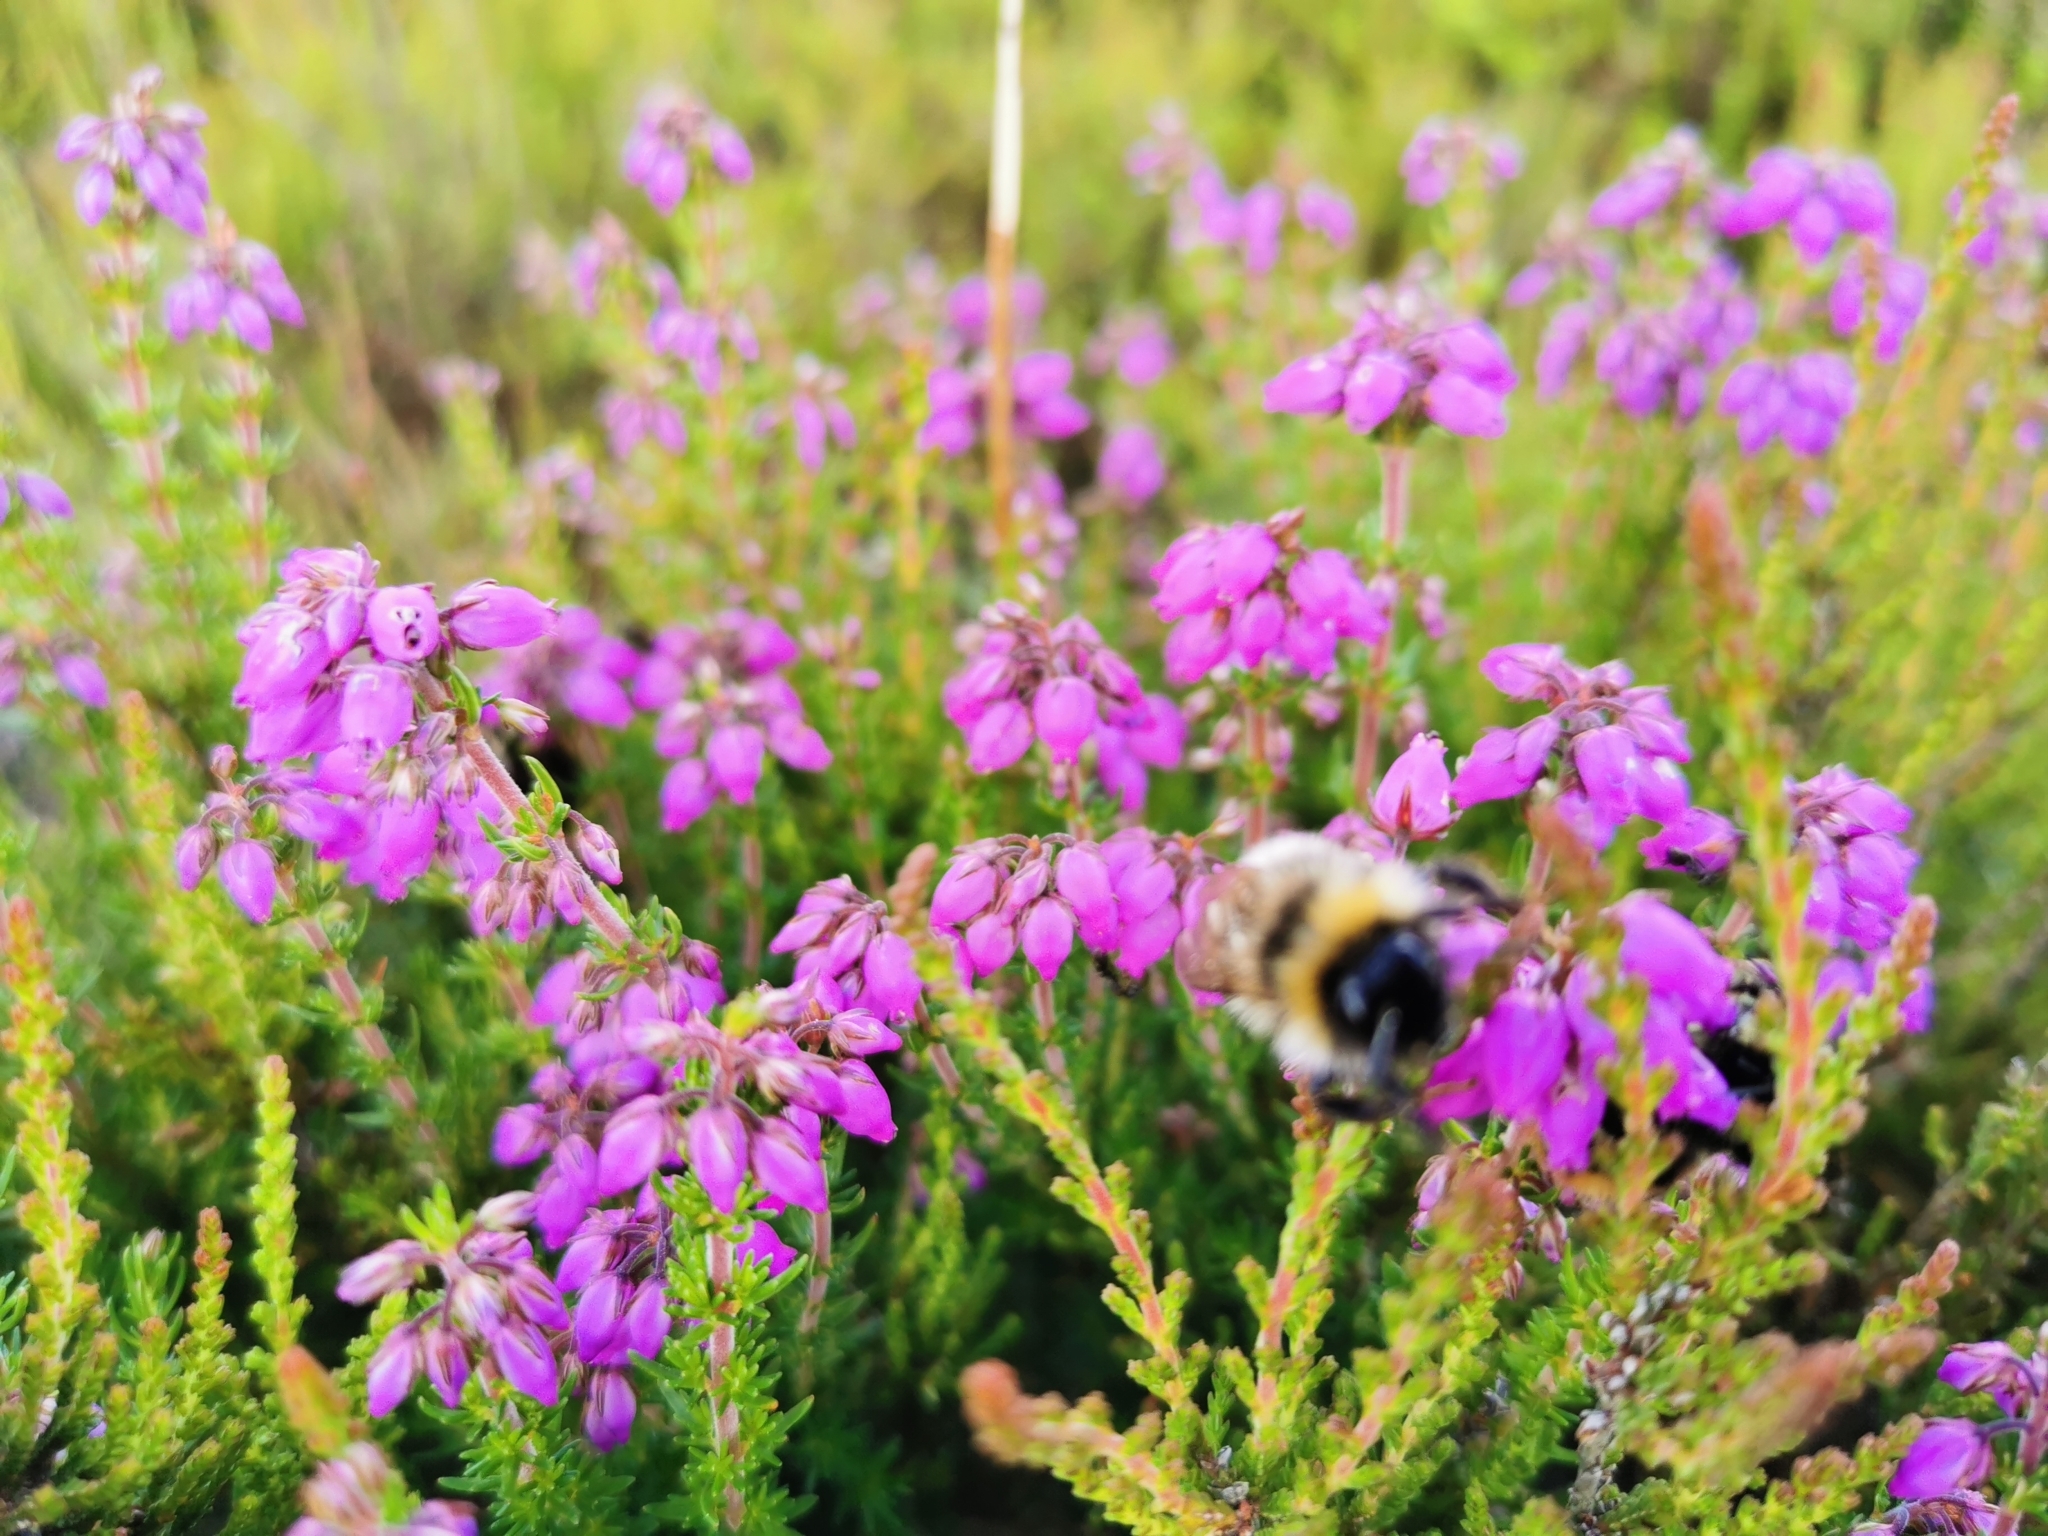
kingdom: Plantae
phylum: Tracheophyta
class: Magnoliopsida
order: Ericales
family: Ericaceae
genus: Erica
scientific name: Erica cinerea
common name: Bell heather
